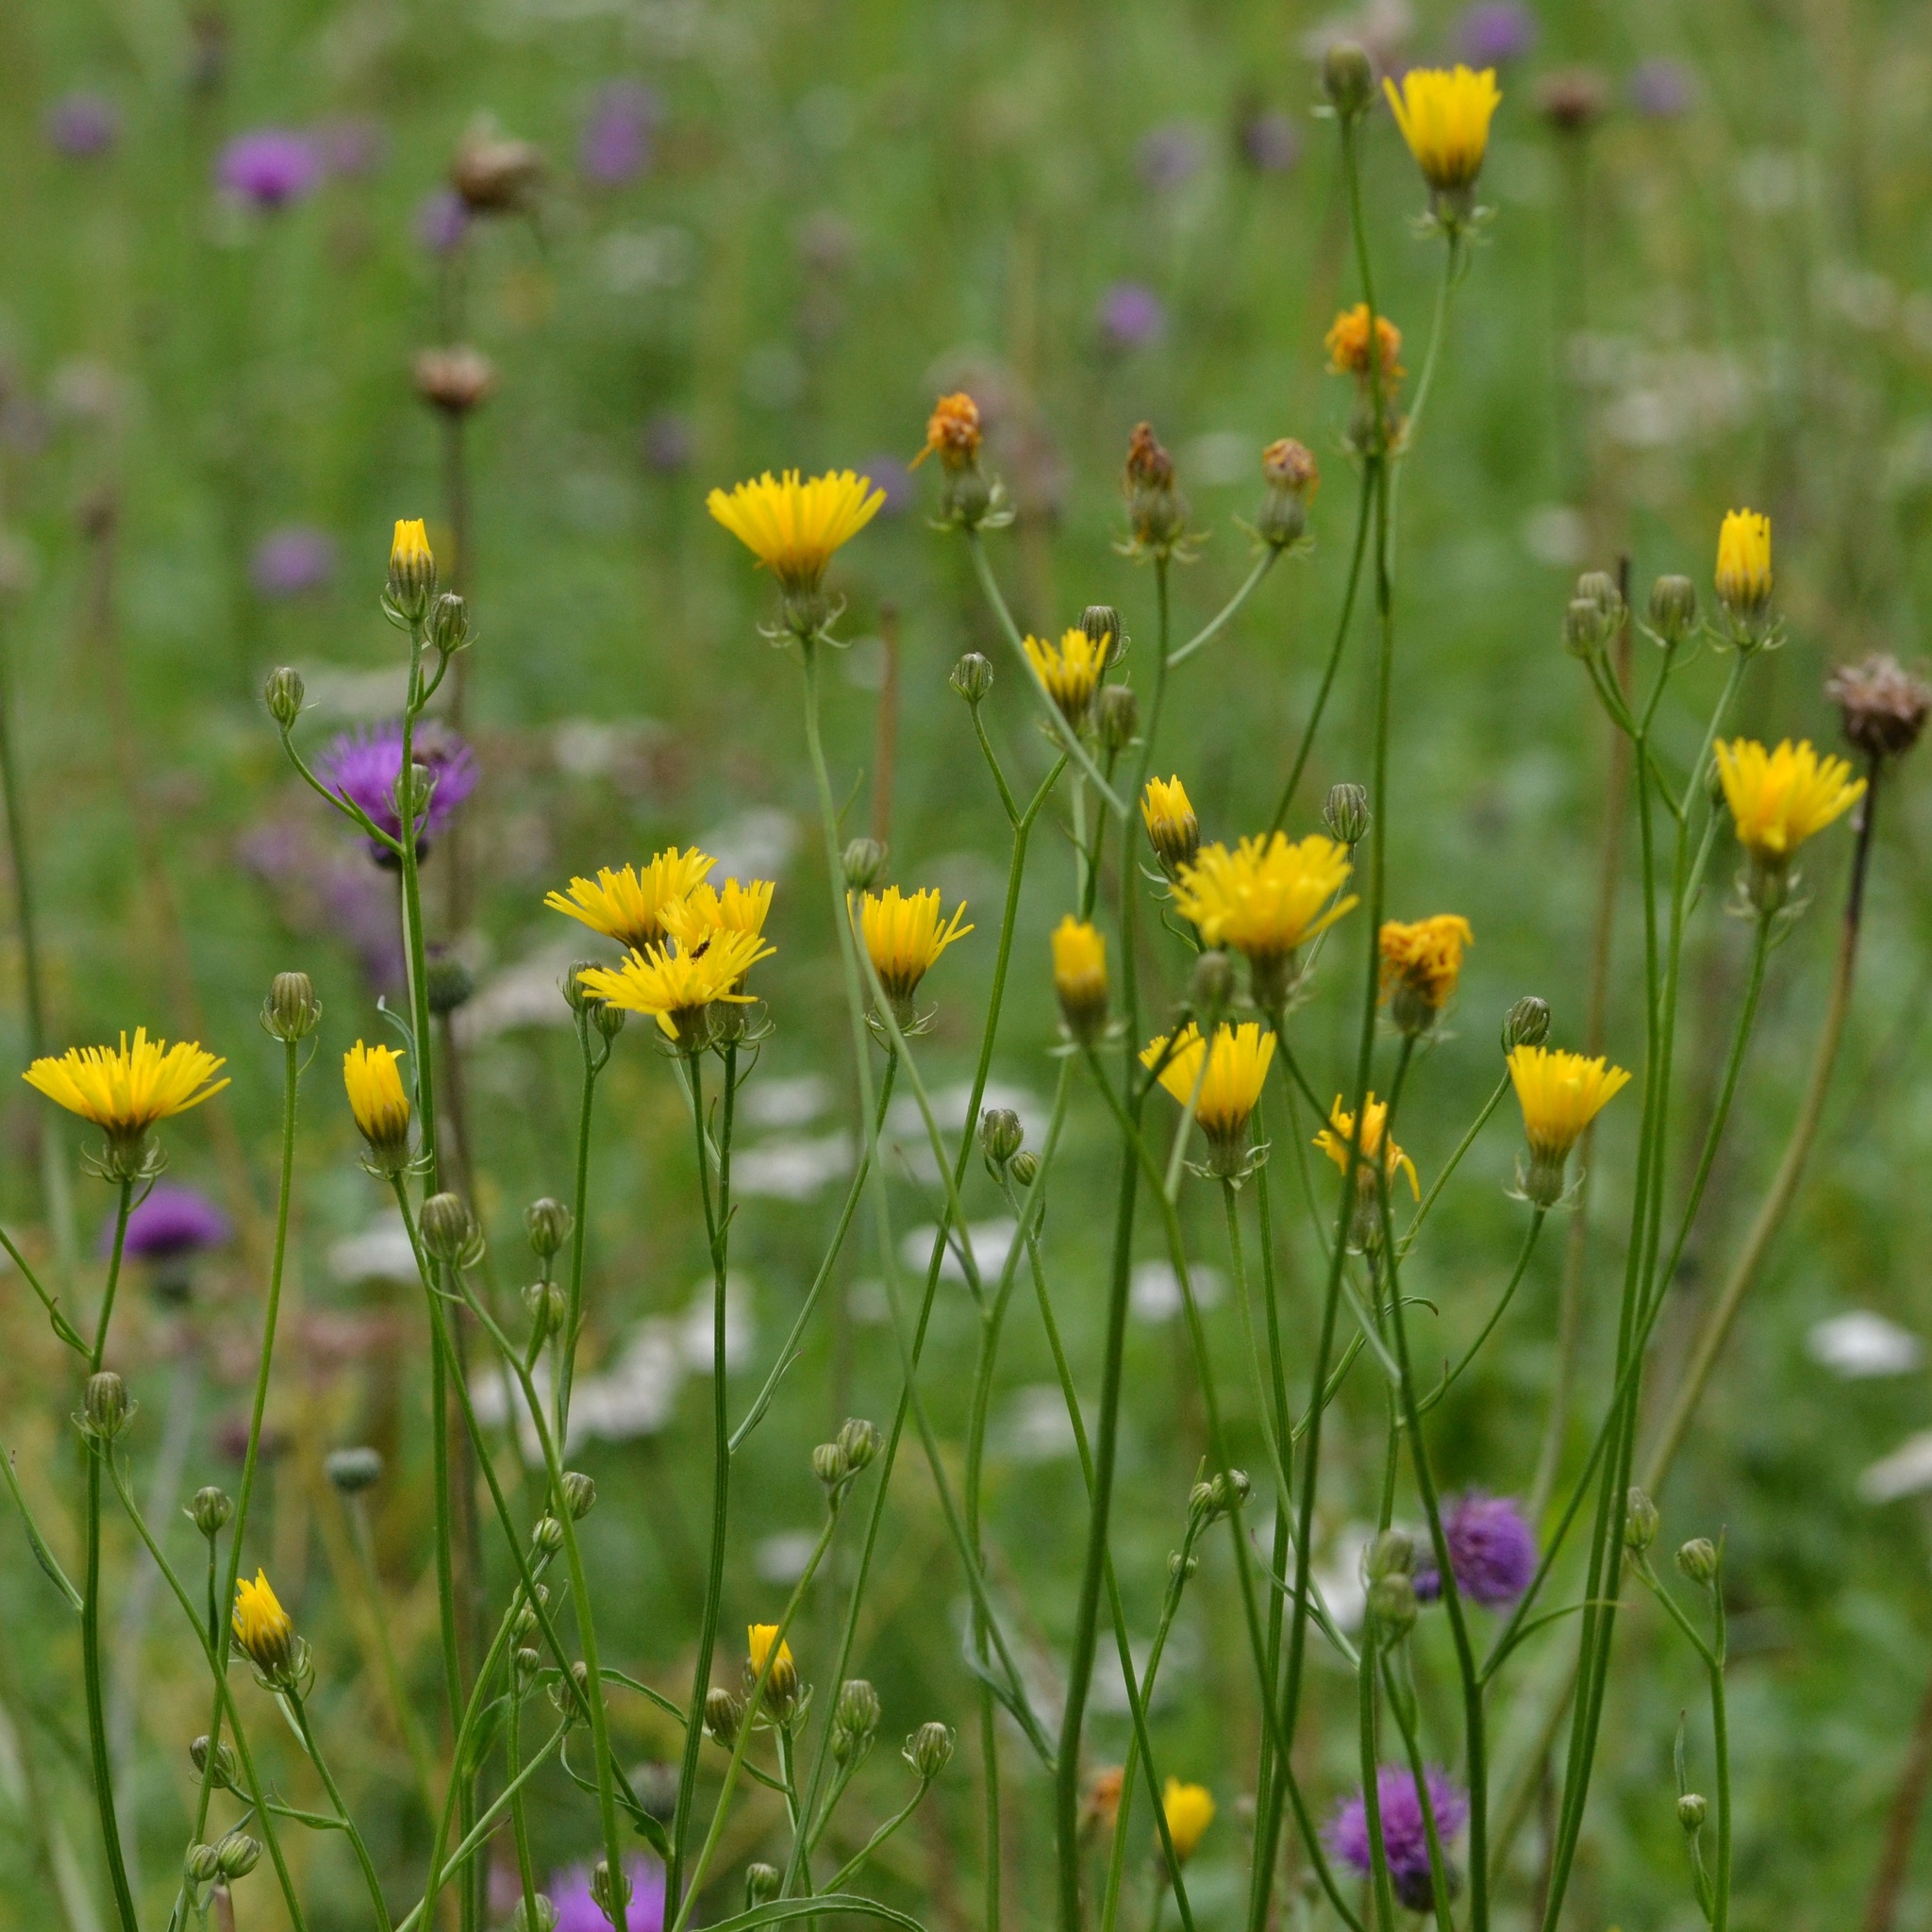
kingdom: Plantae
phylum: Tracheophyta
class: Magnoliopsida
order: Asterales
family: Asteraceae
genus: Crepis
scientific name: Crepis biennis
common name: Rough hawk's-beard
